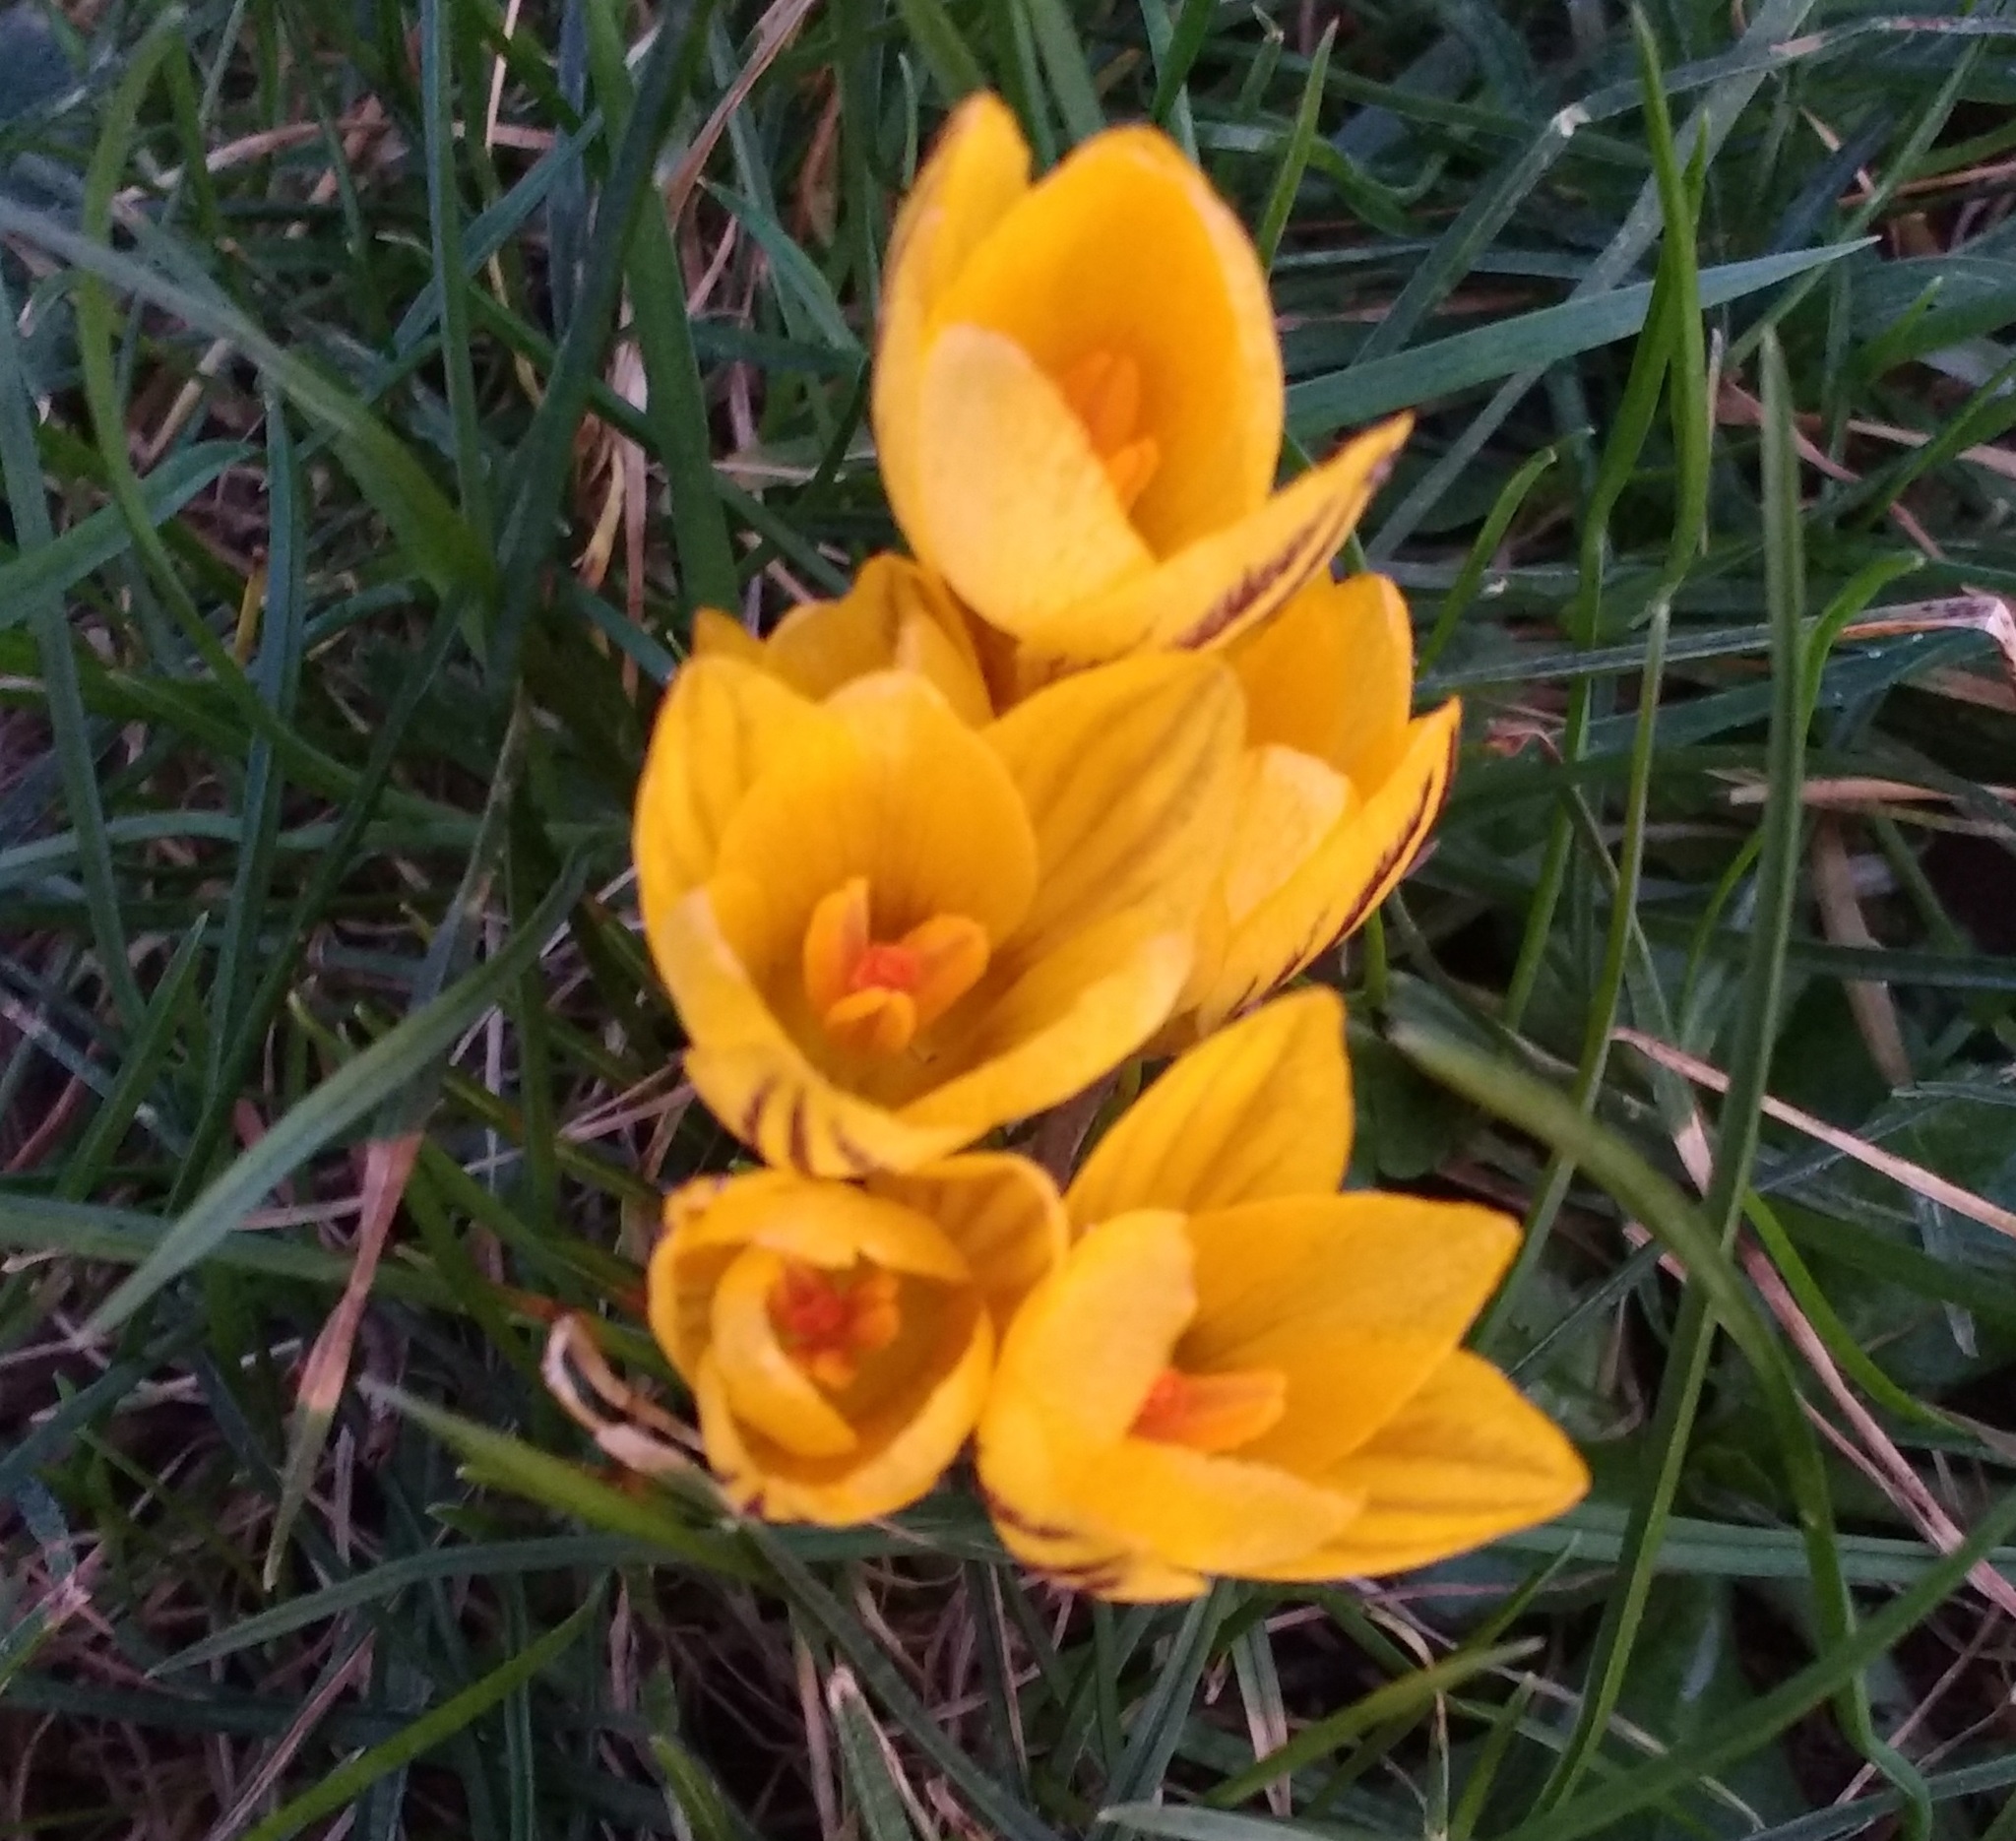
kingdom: Plantae
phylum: Tracheophyta
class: Liliopsida
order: Asparagales
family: Iridaceae
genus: Crocus
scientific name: Crocus chrysanthus
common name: Golden crocus
